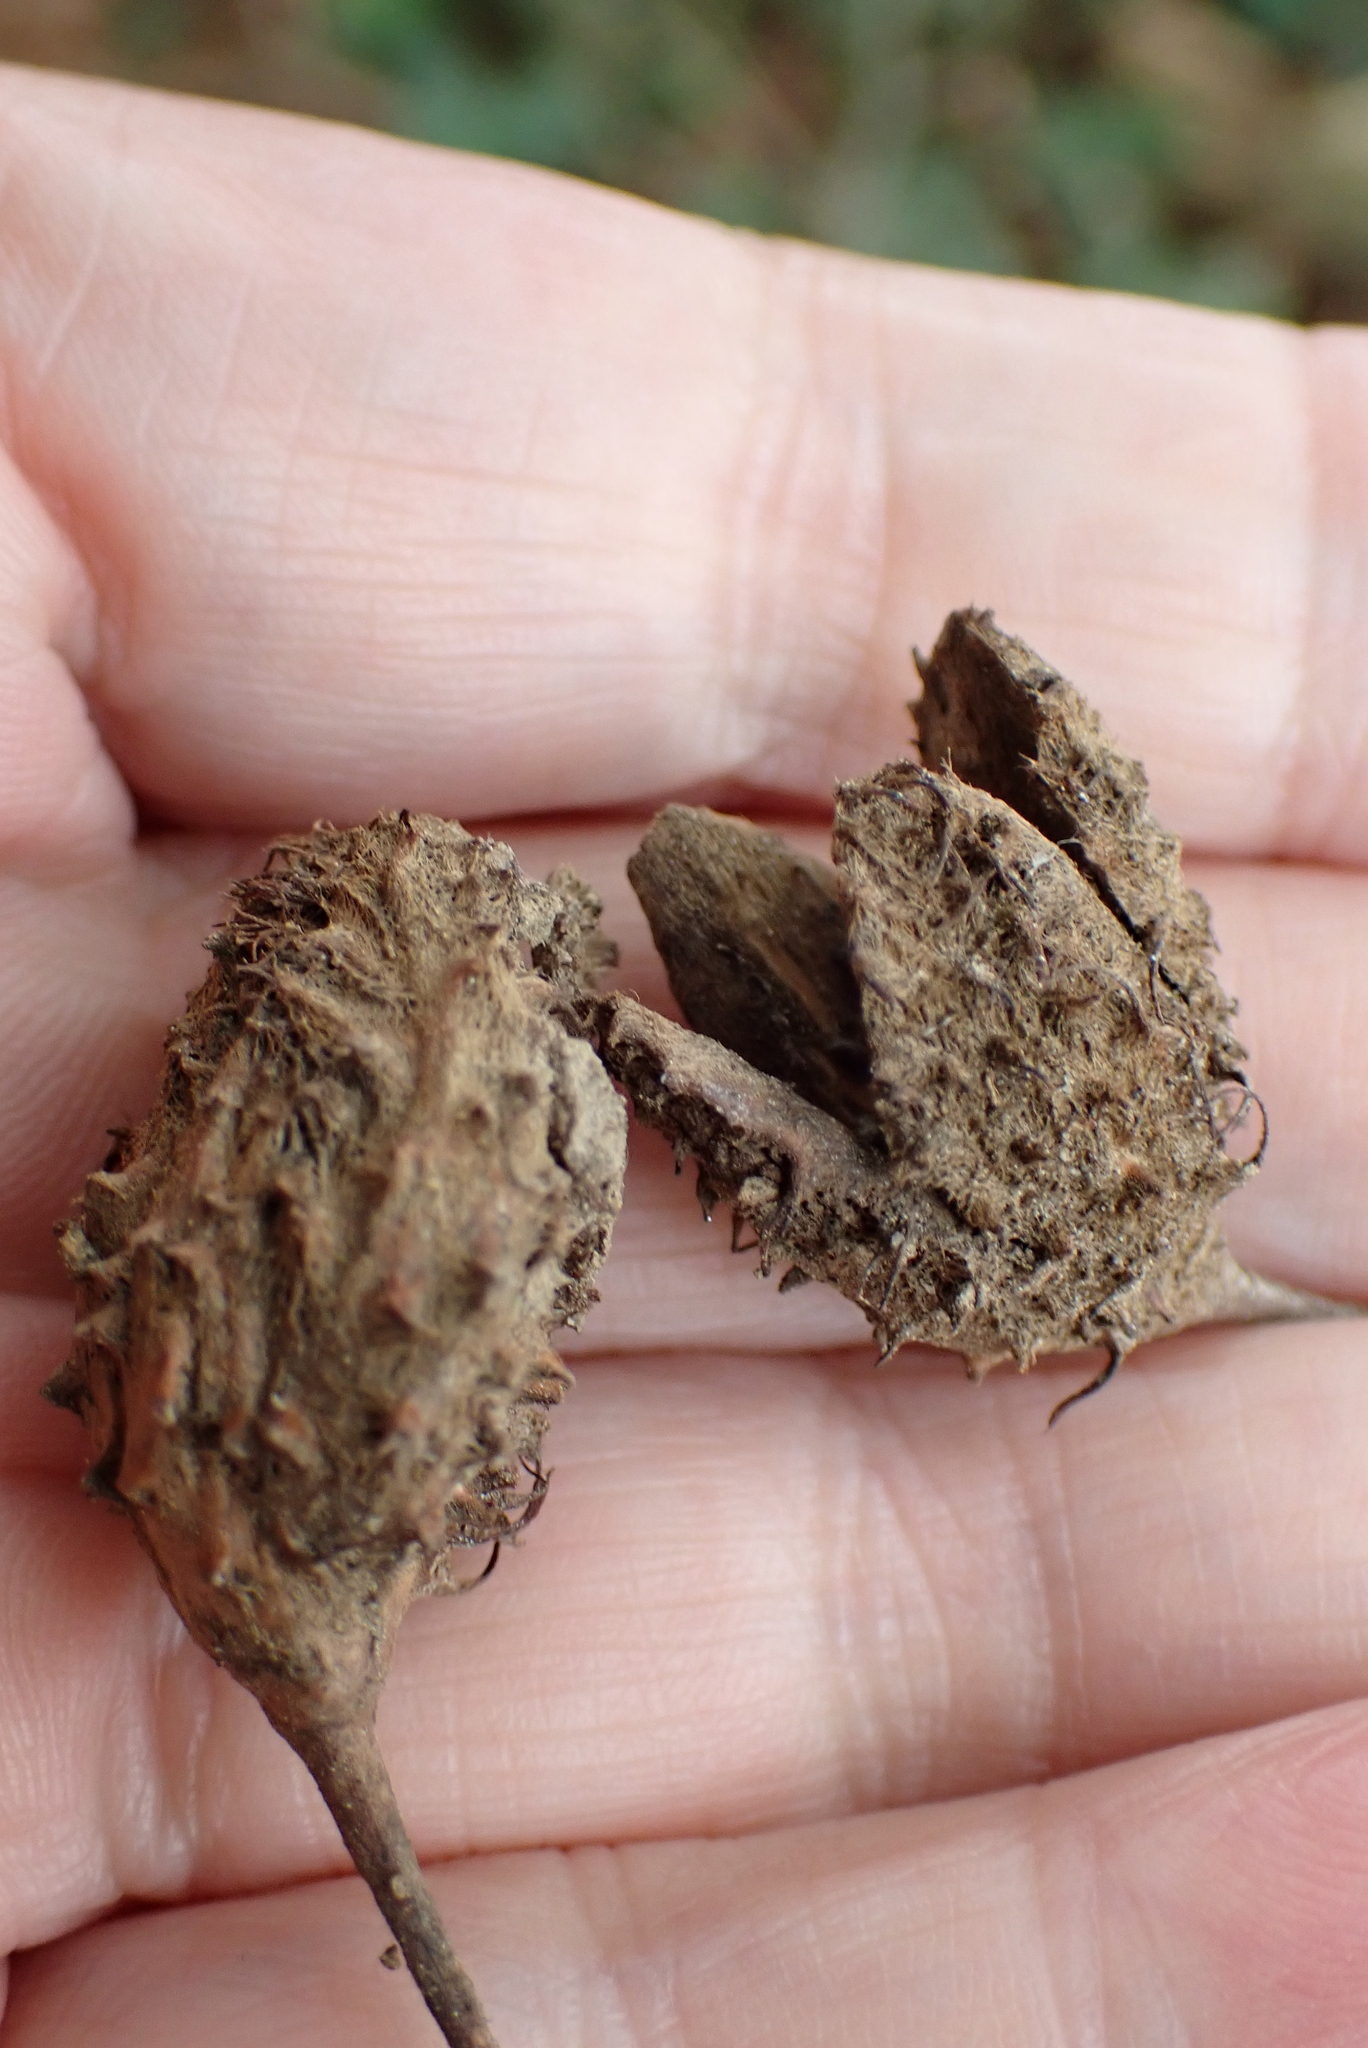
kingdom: Plantae
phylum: Tracheophyta
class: Magnoliopsida
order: Fagales
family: Fagaceae
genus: Fagus
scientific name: Fagus sylvatica
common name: Beech
